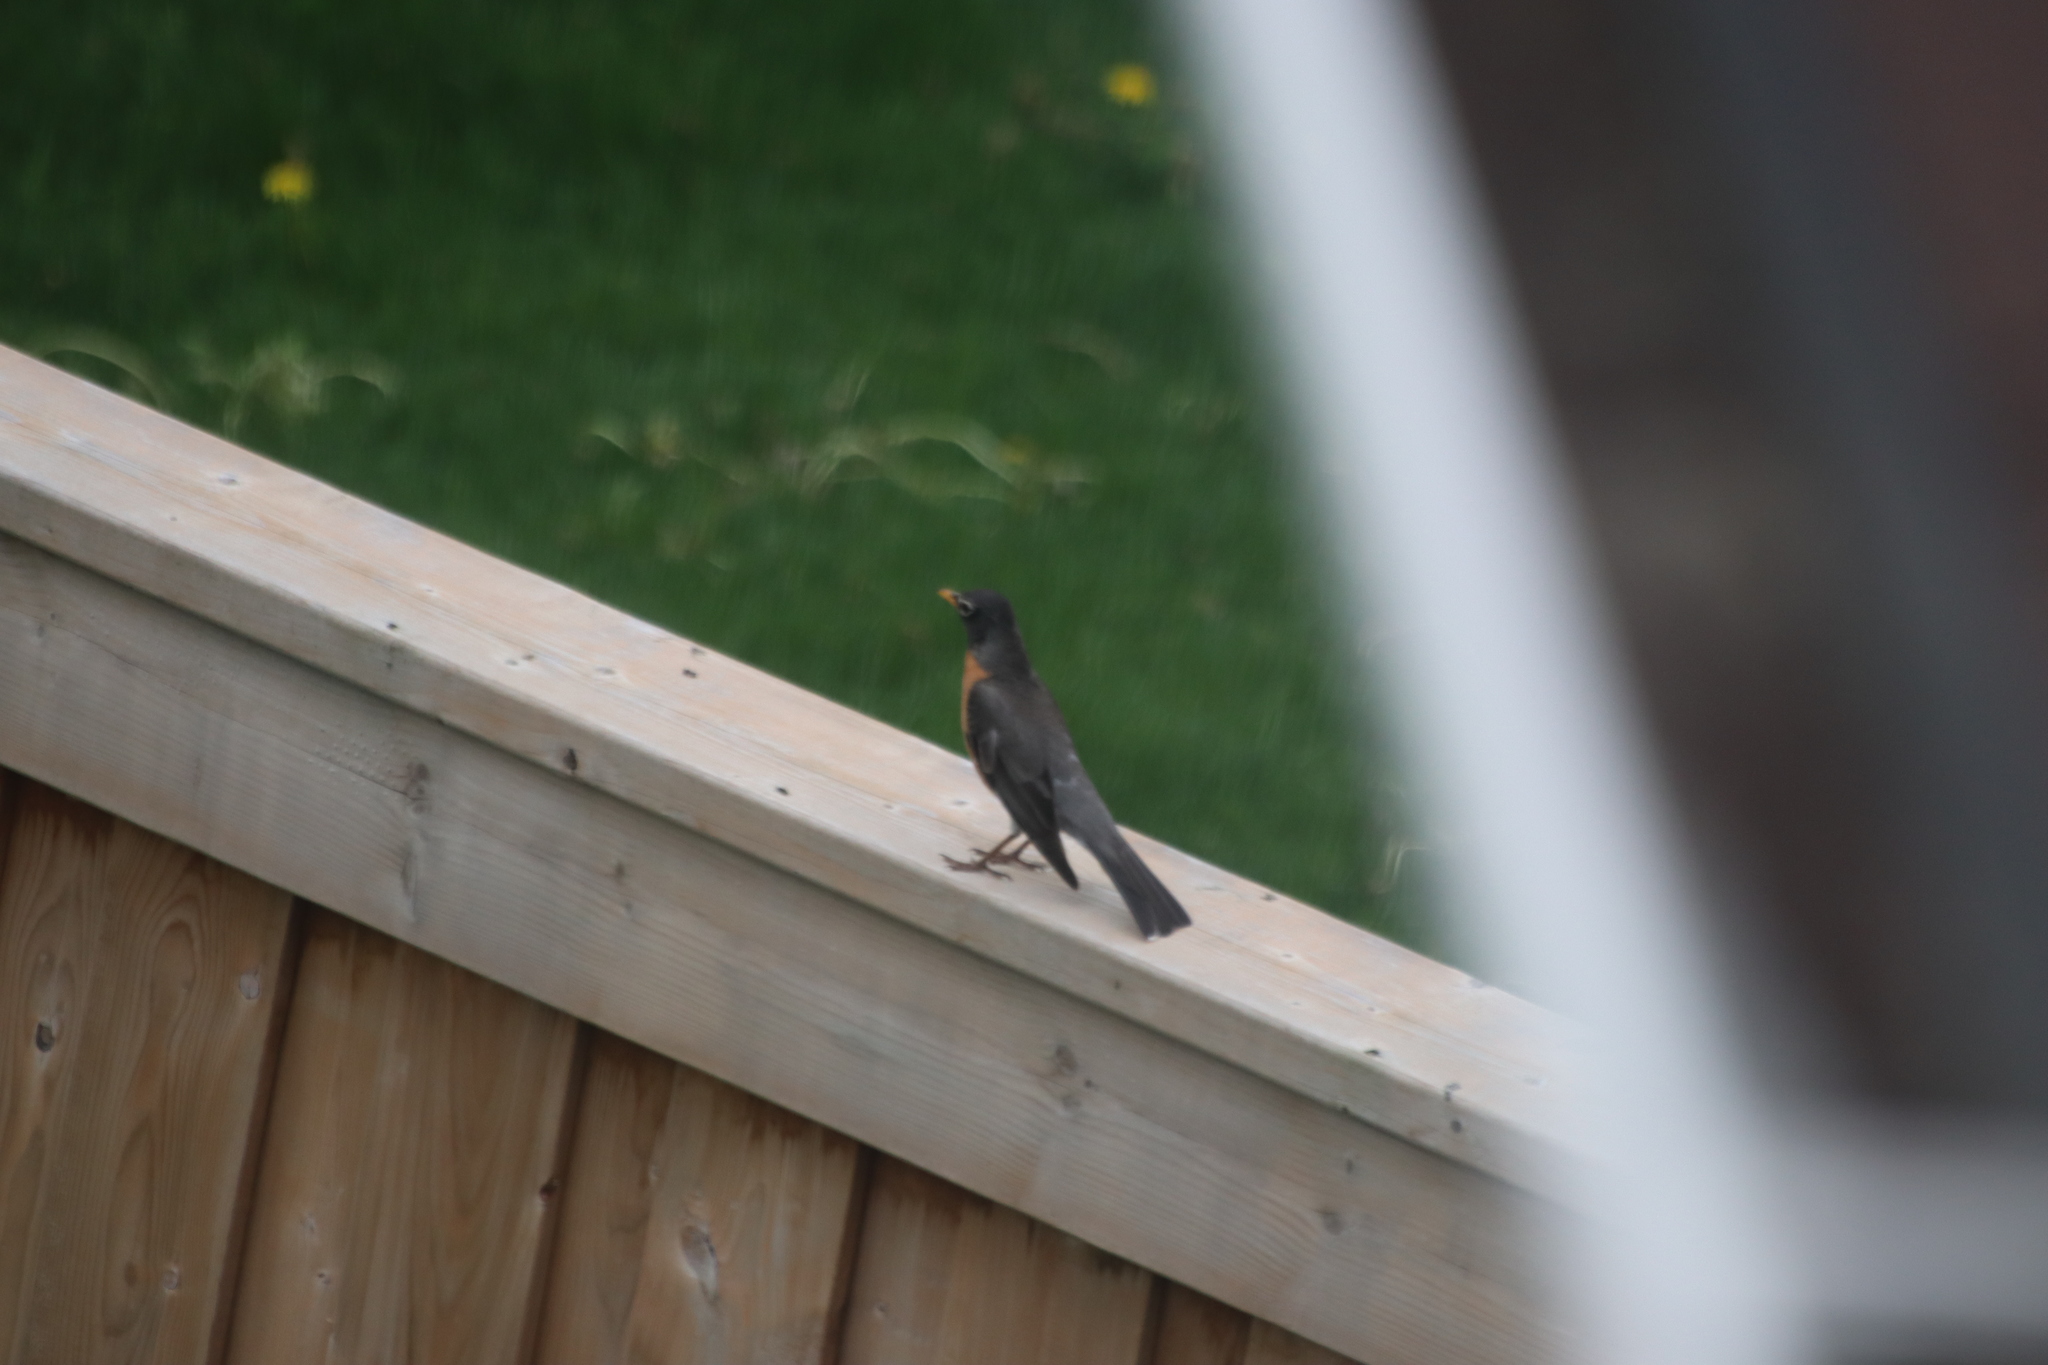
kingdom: Animalia
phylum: Chordata
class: Aves
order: Passeriformes
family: Turdidae
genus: Turdus
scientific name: Turdus migratorius
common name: American robin
